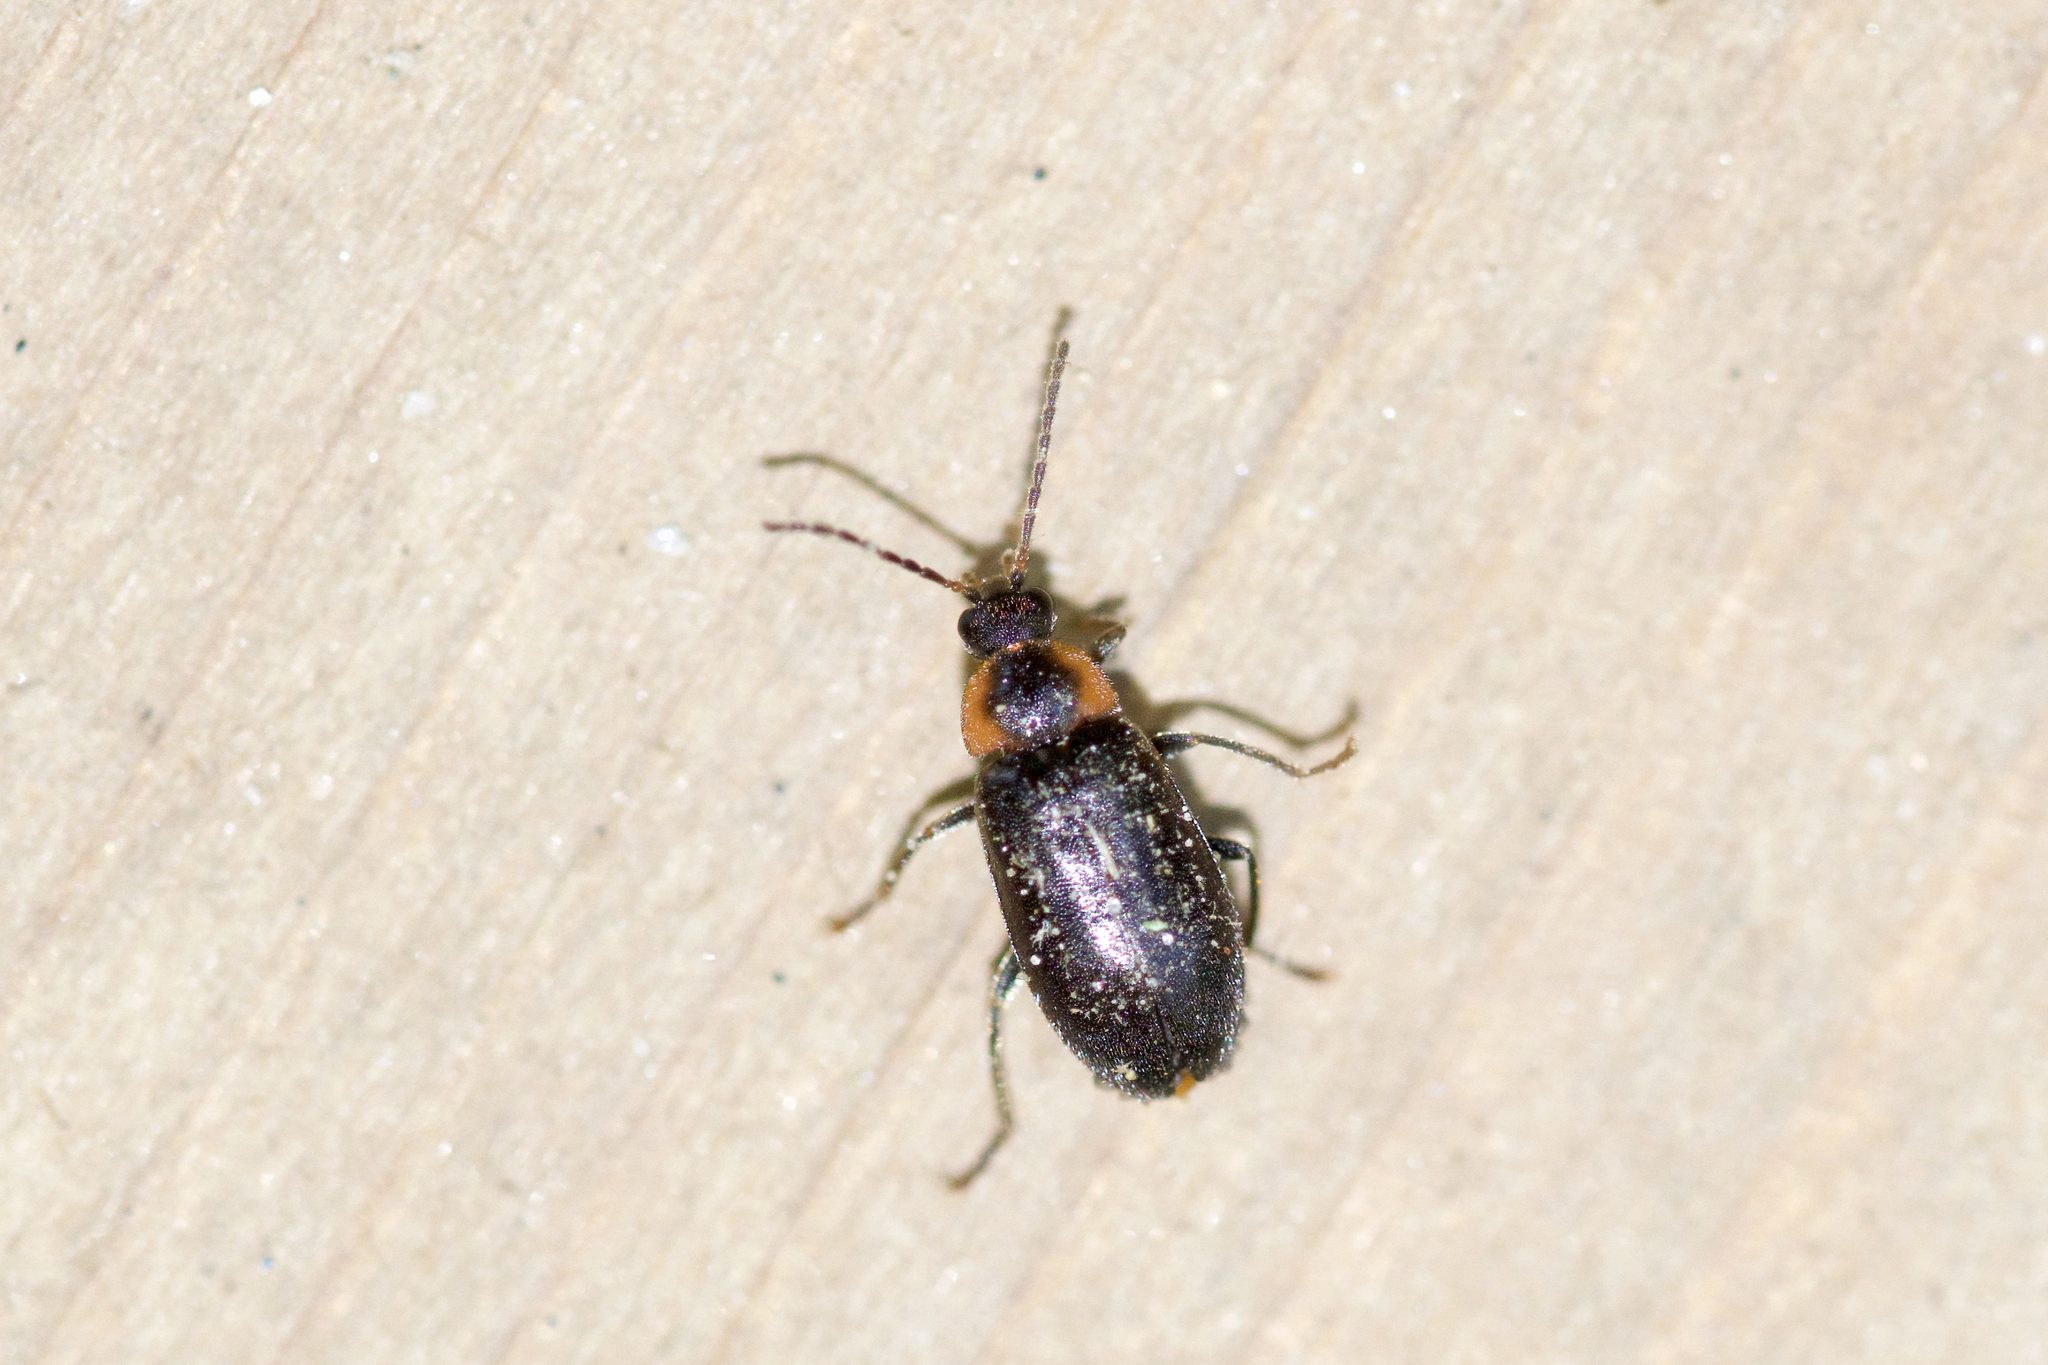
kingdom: Animalia
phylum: Arthropoda
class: Insecta
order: Coleoptera
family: Scirtidae
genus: Elodes
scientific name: Elodes maculicollis
